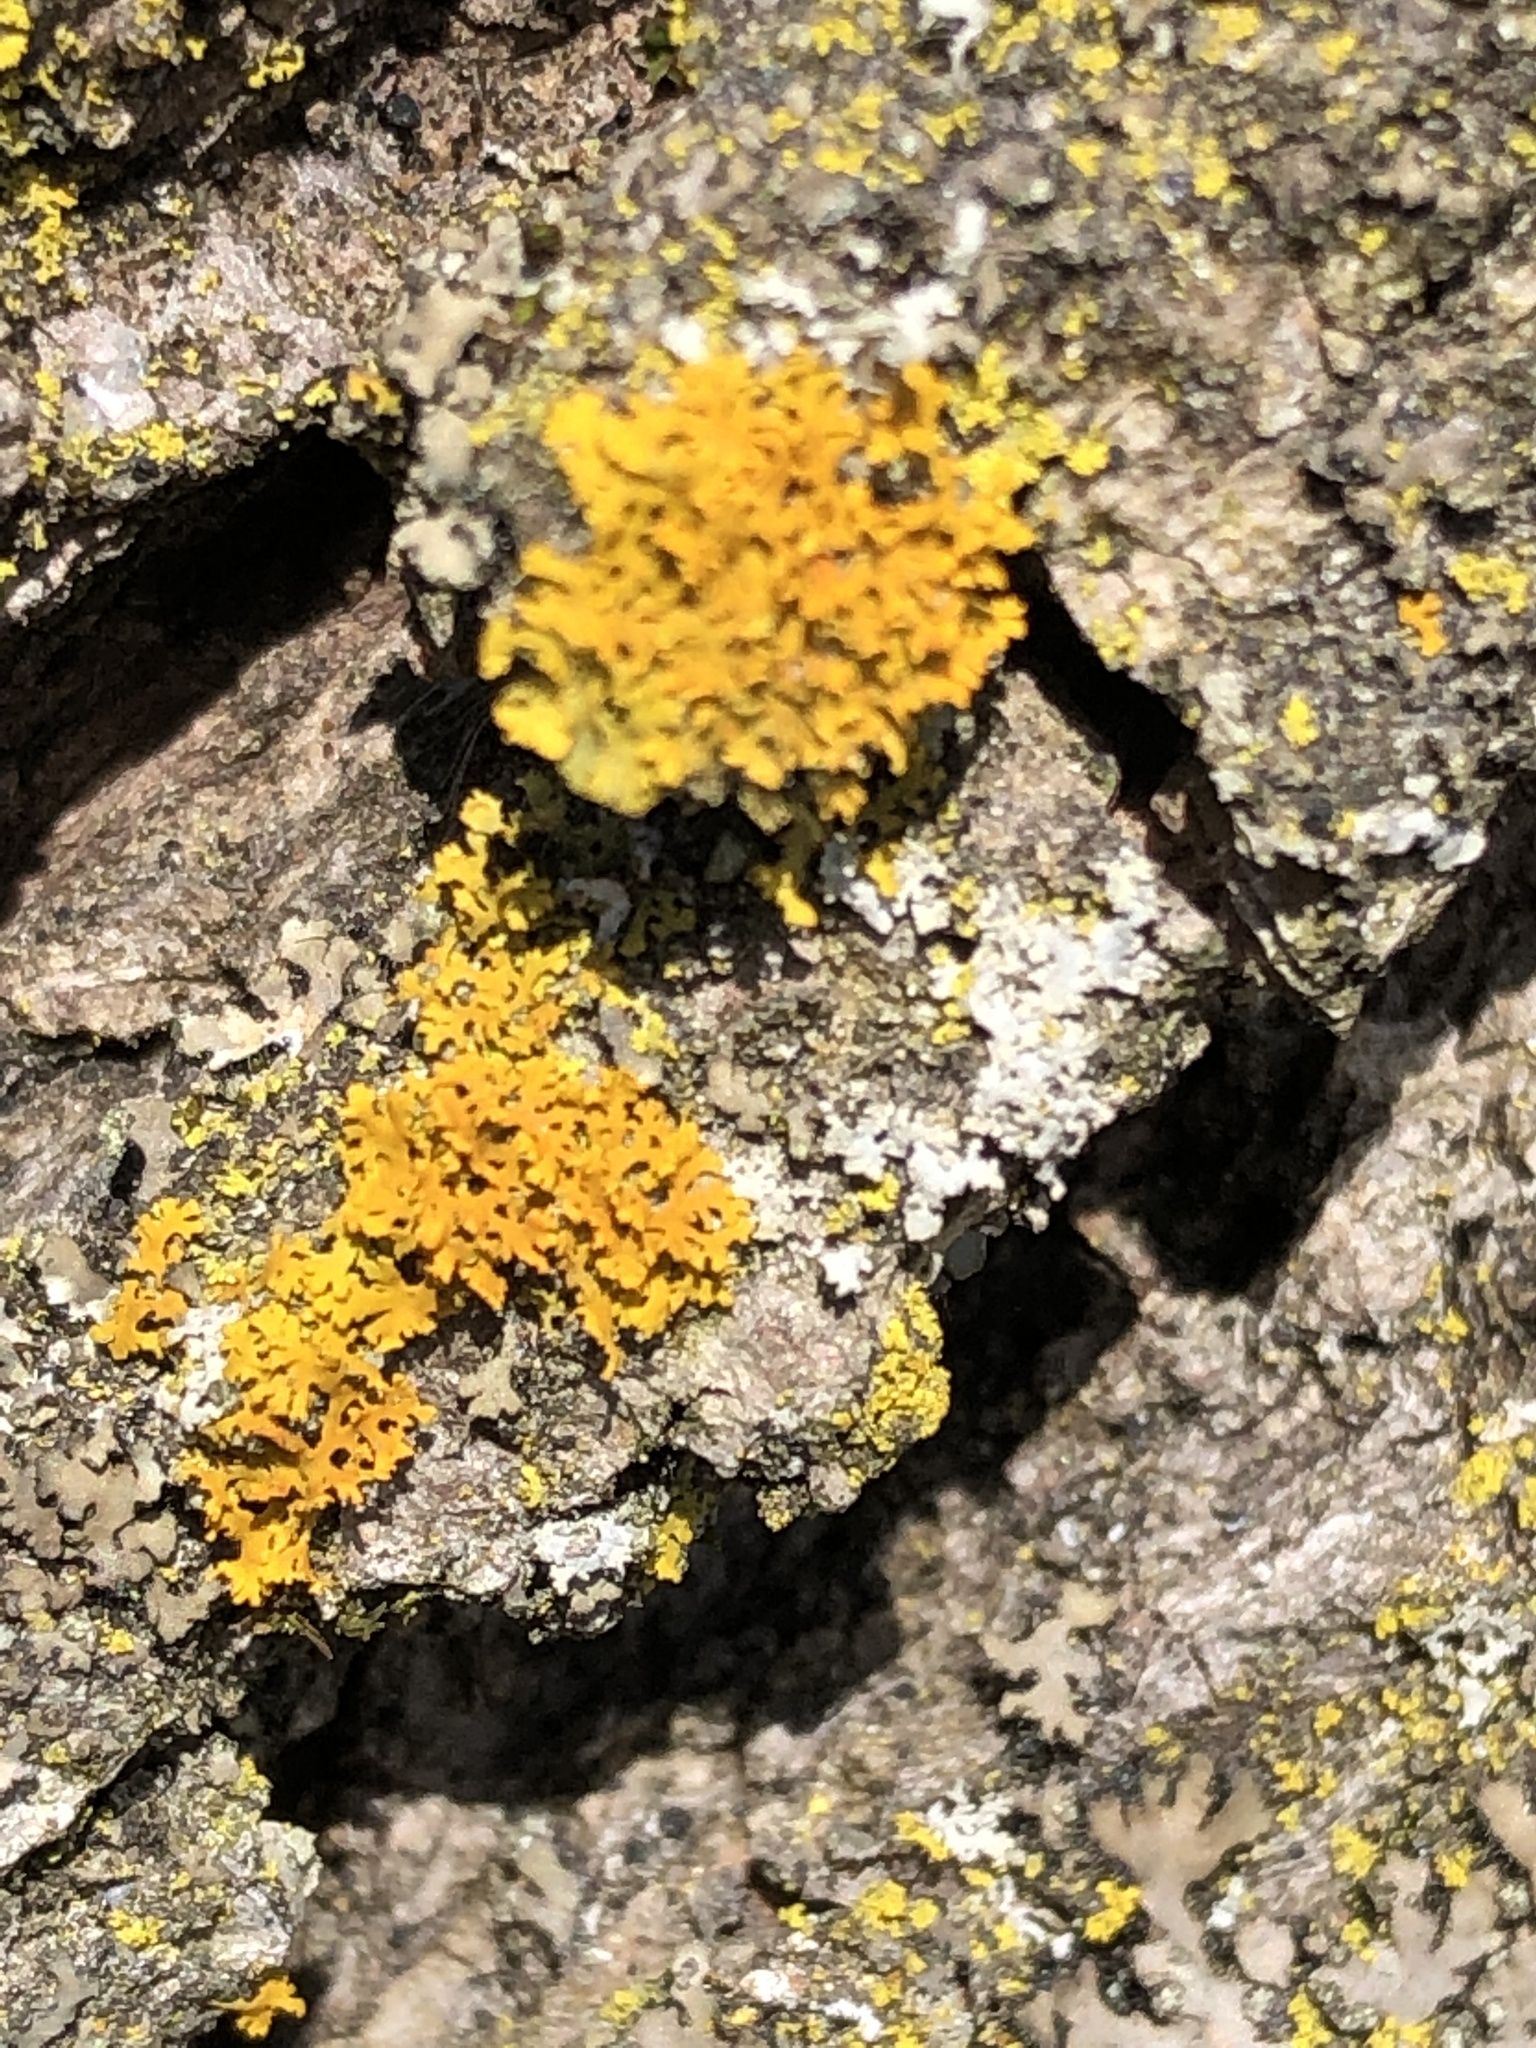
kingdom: Fungi
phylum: Ascomycota
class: Lecanoromycetes
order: Teloschistales
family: Teloschistaceae
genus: Gallowayella
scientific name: Gallowayella weberi
